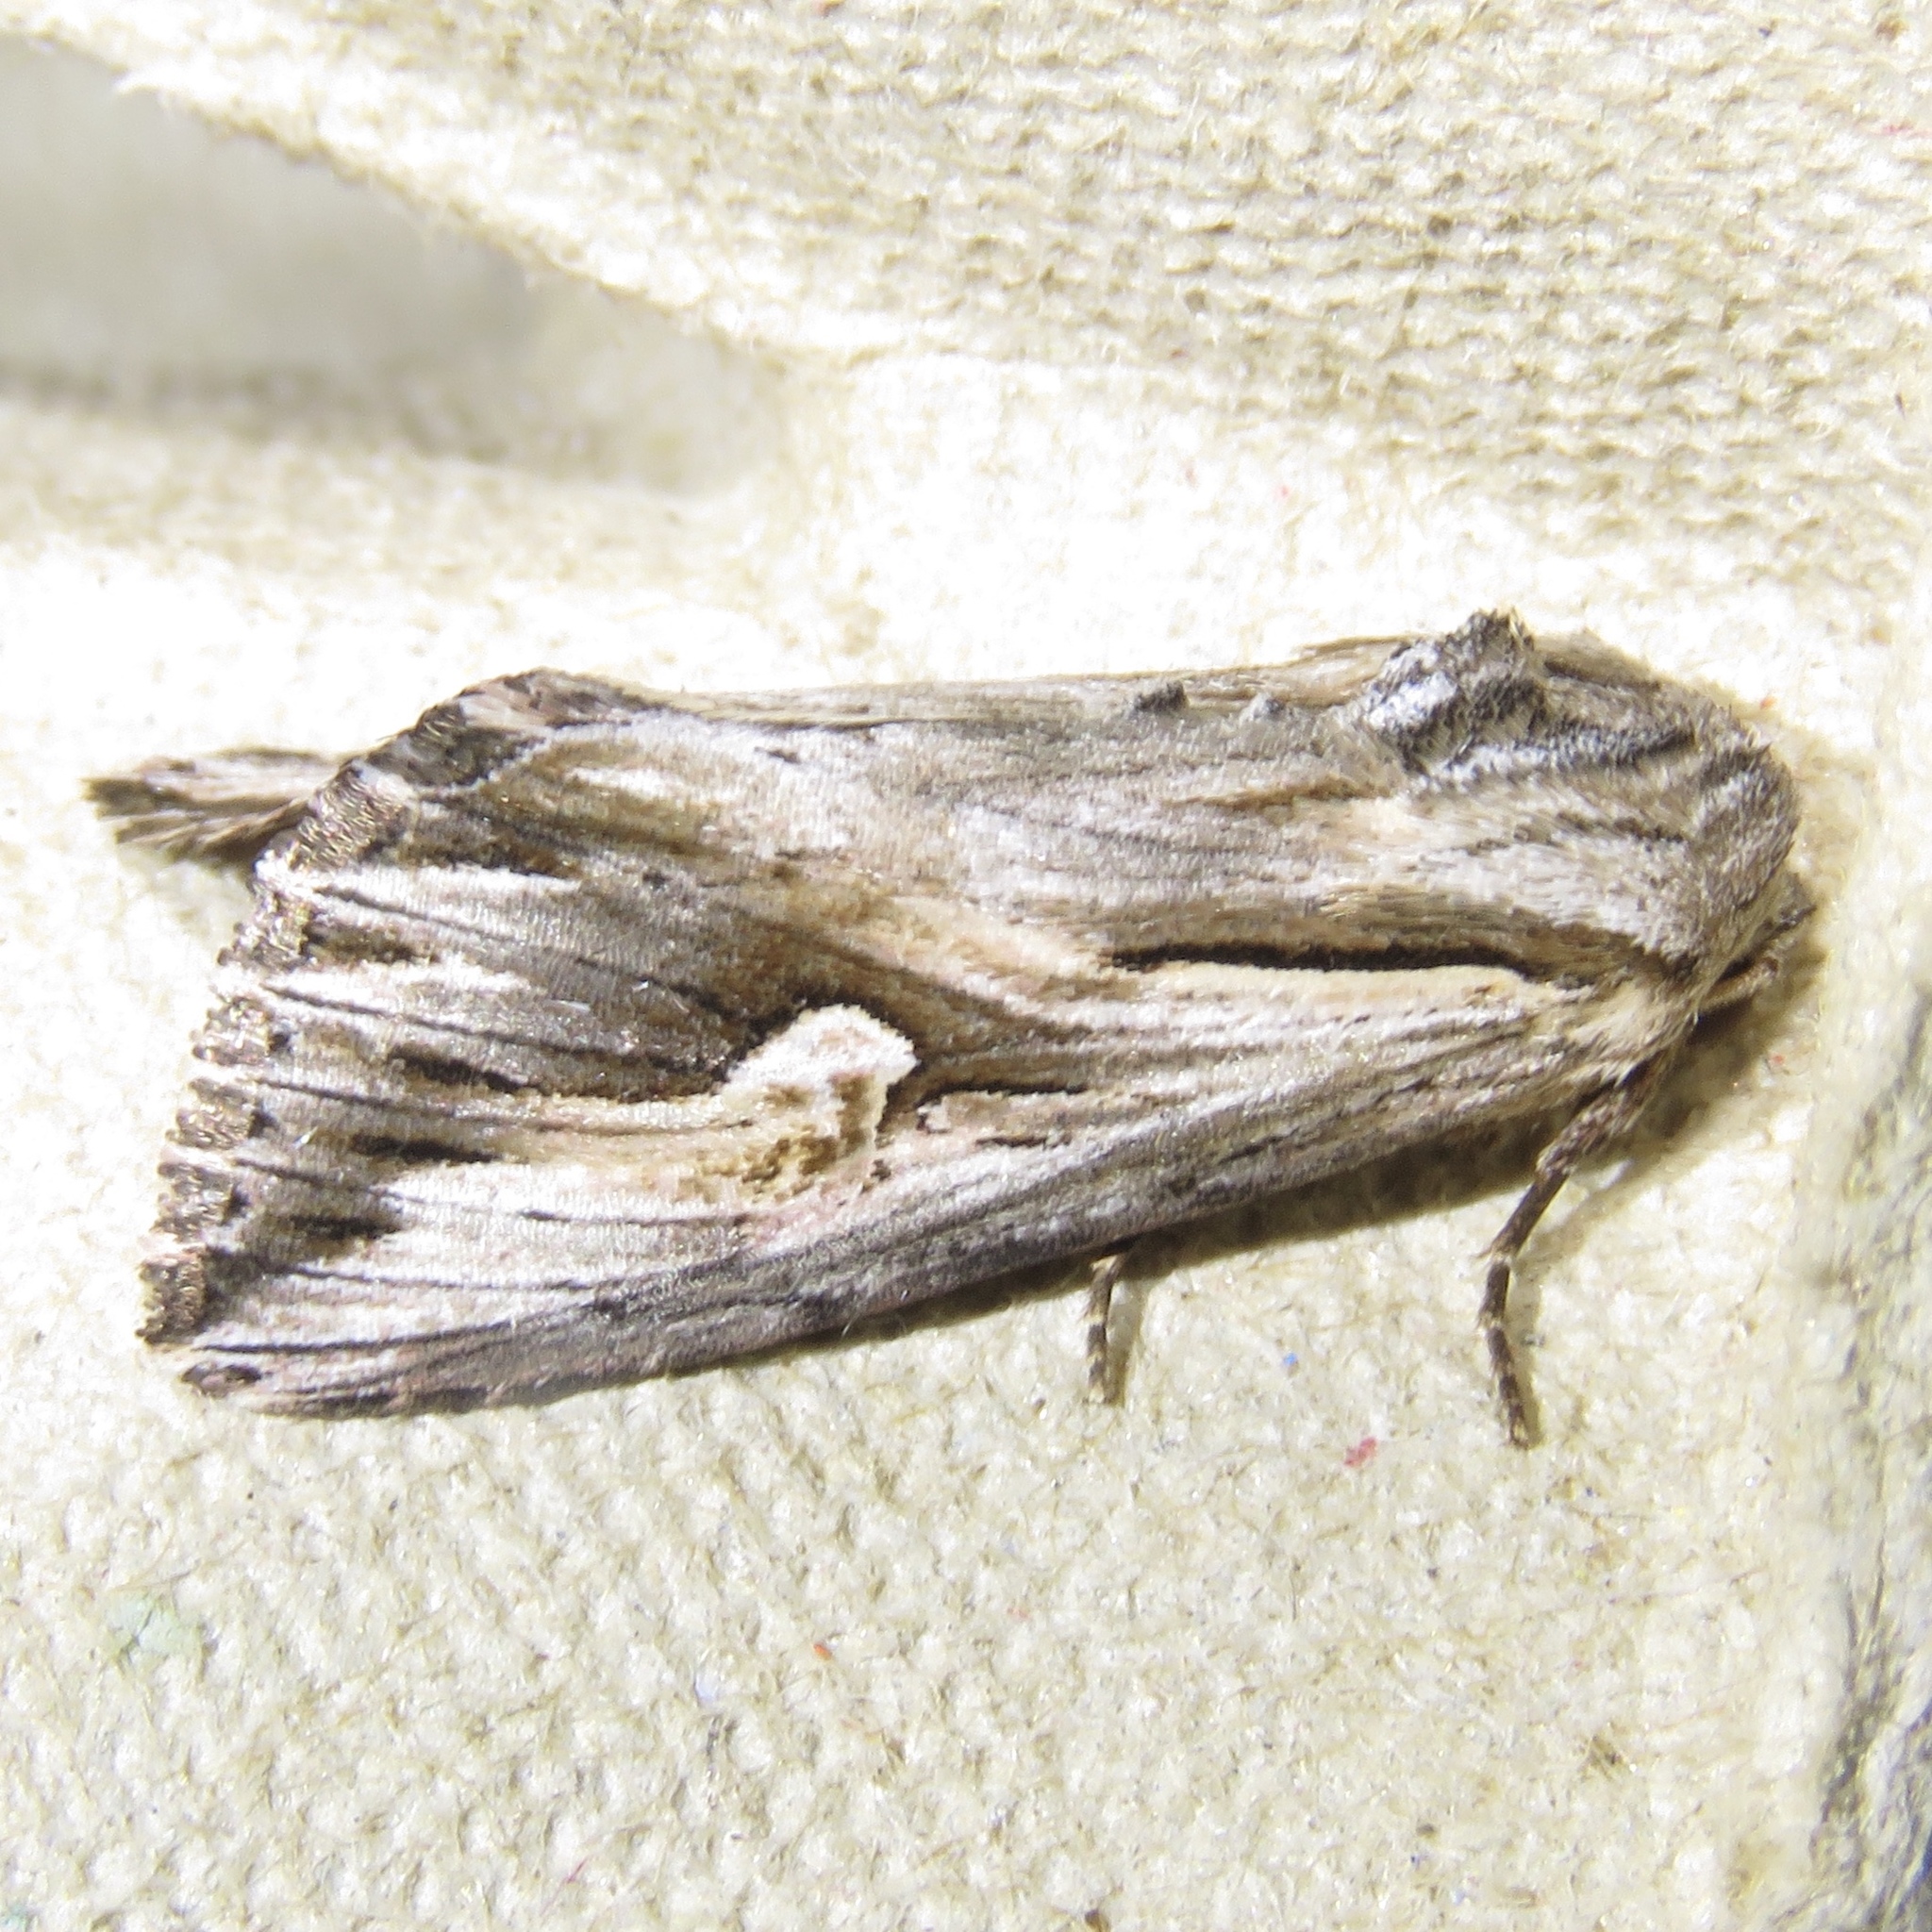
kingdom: Animalia
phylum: Arthropoda
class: Insecta
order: Lepidoptera
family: Noctuidae
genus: Nedra
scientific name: Nedra ramosula
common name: Gray half-spot
